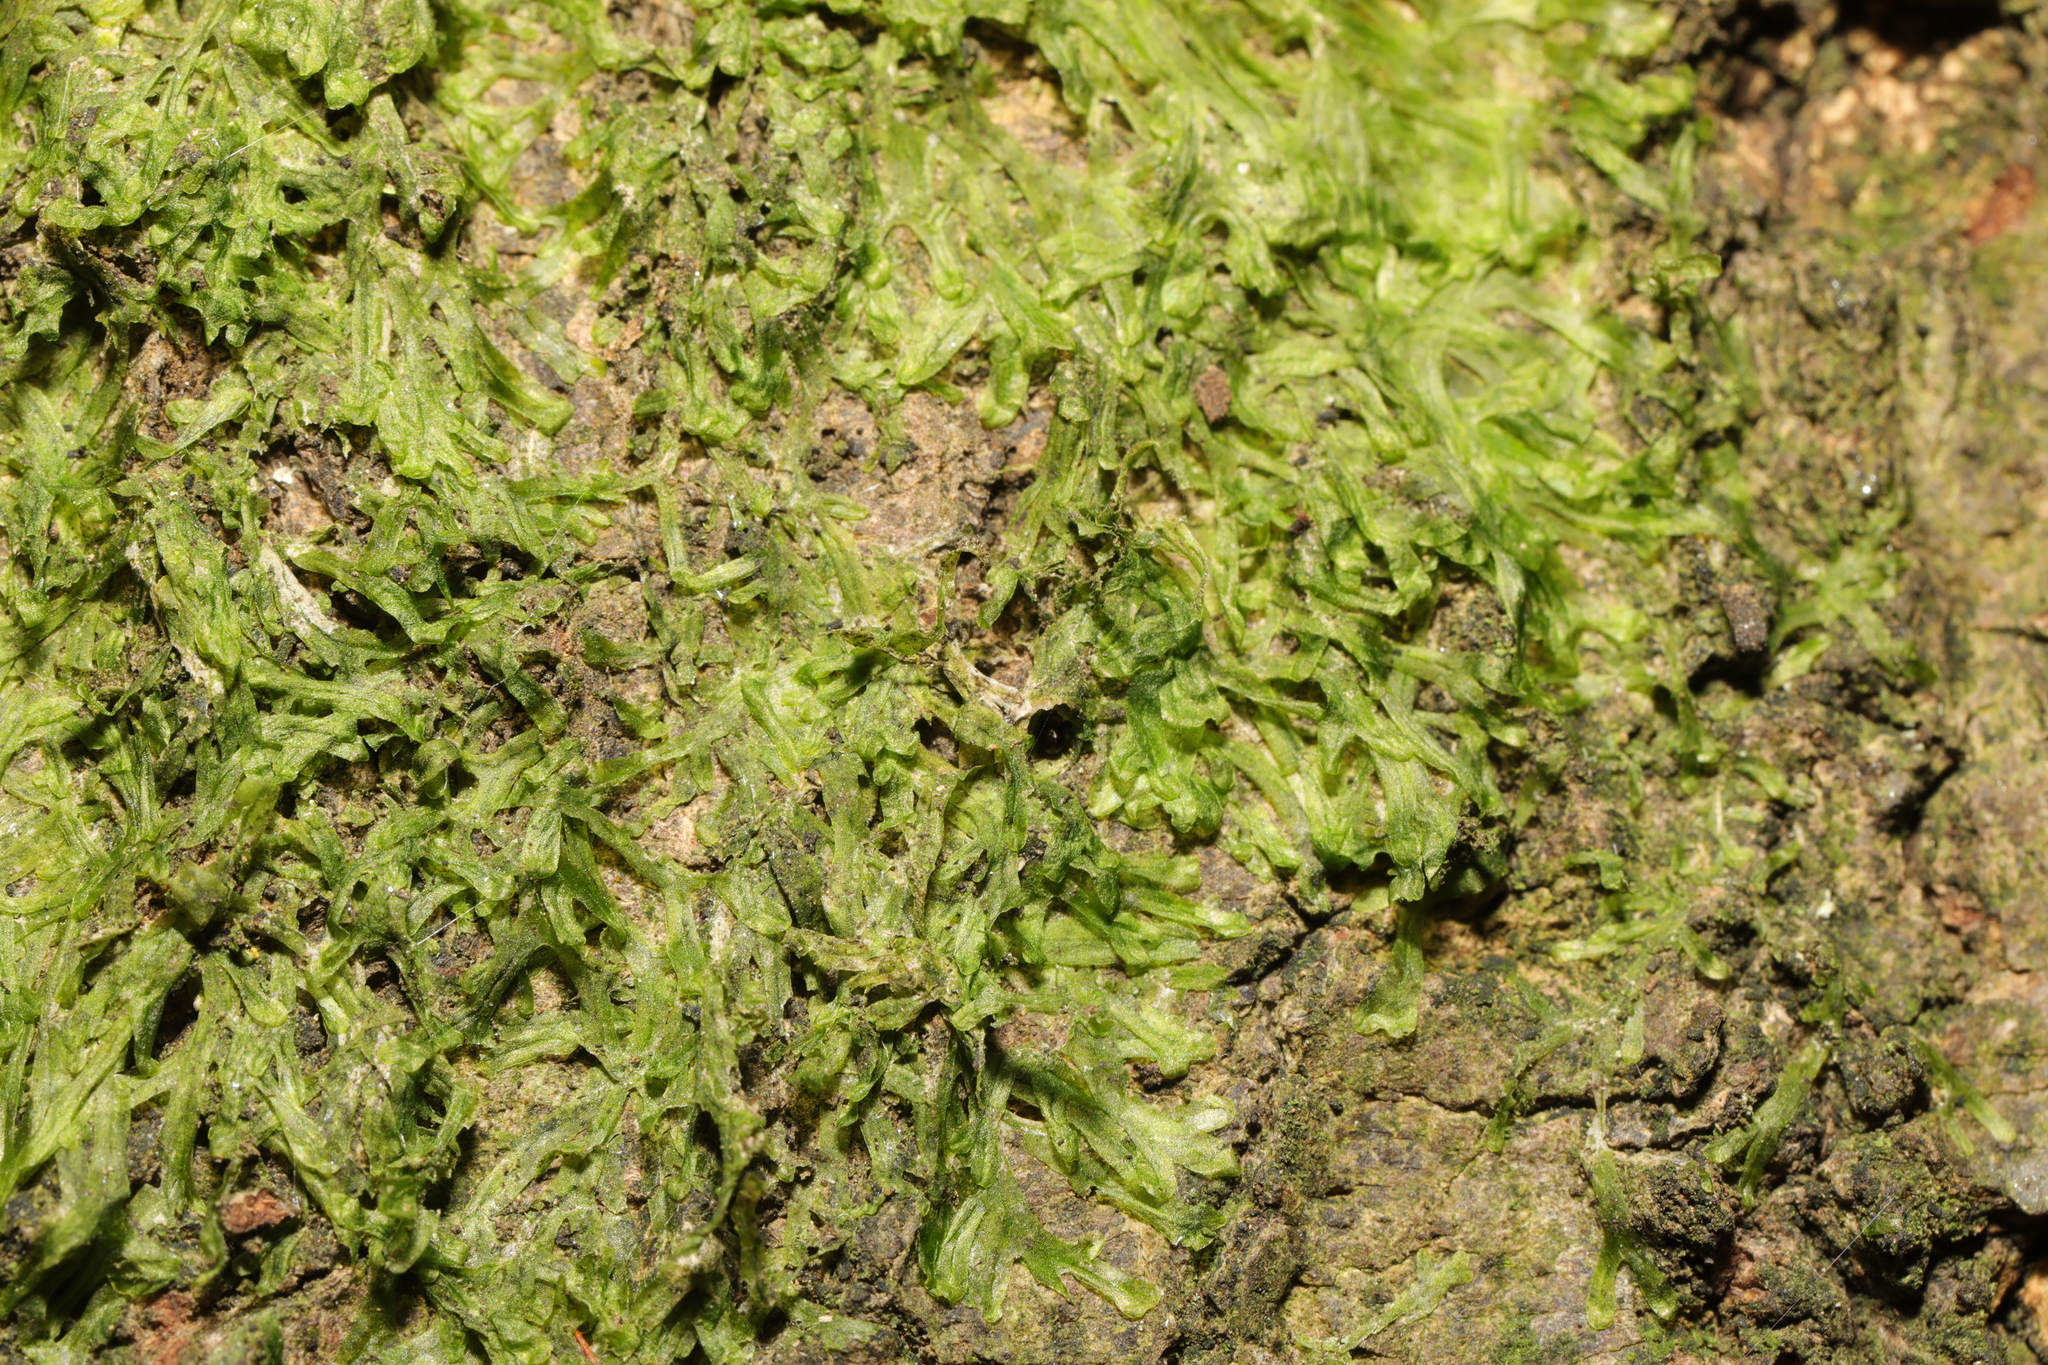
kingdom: Plantae
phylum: Marchantiophyta
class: Jungermanniopsida
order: Metzgeriales
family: Metzgeriaceae
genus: Metzgeria
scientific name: Metzgeria furcata
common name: Forked veilwort
